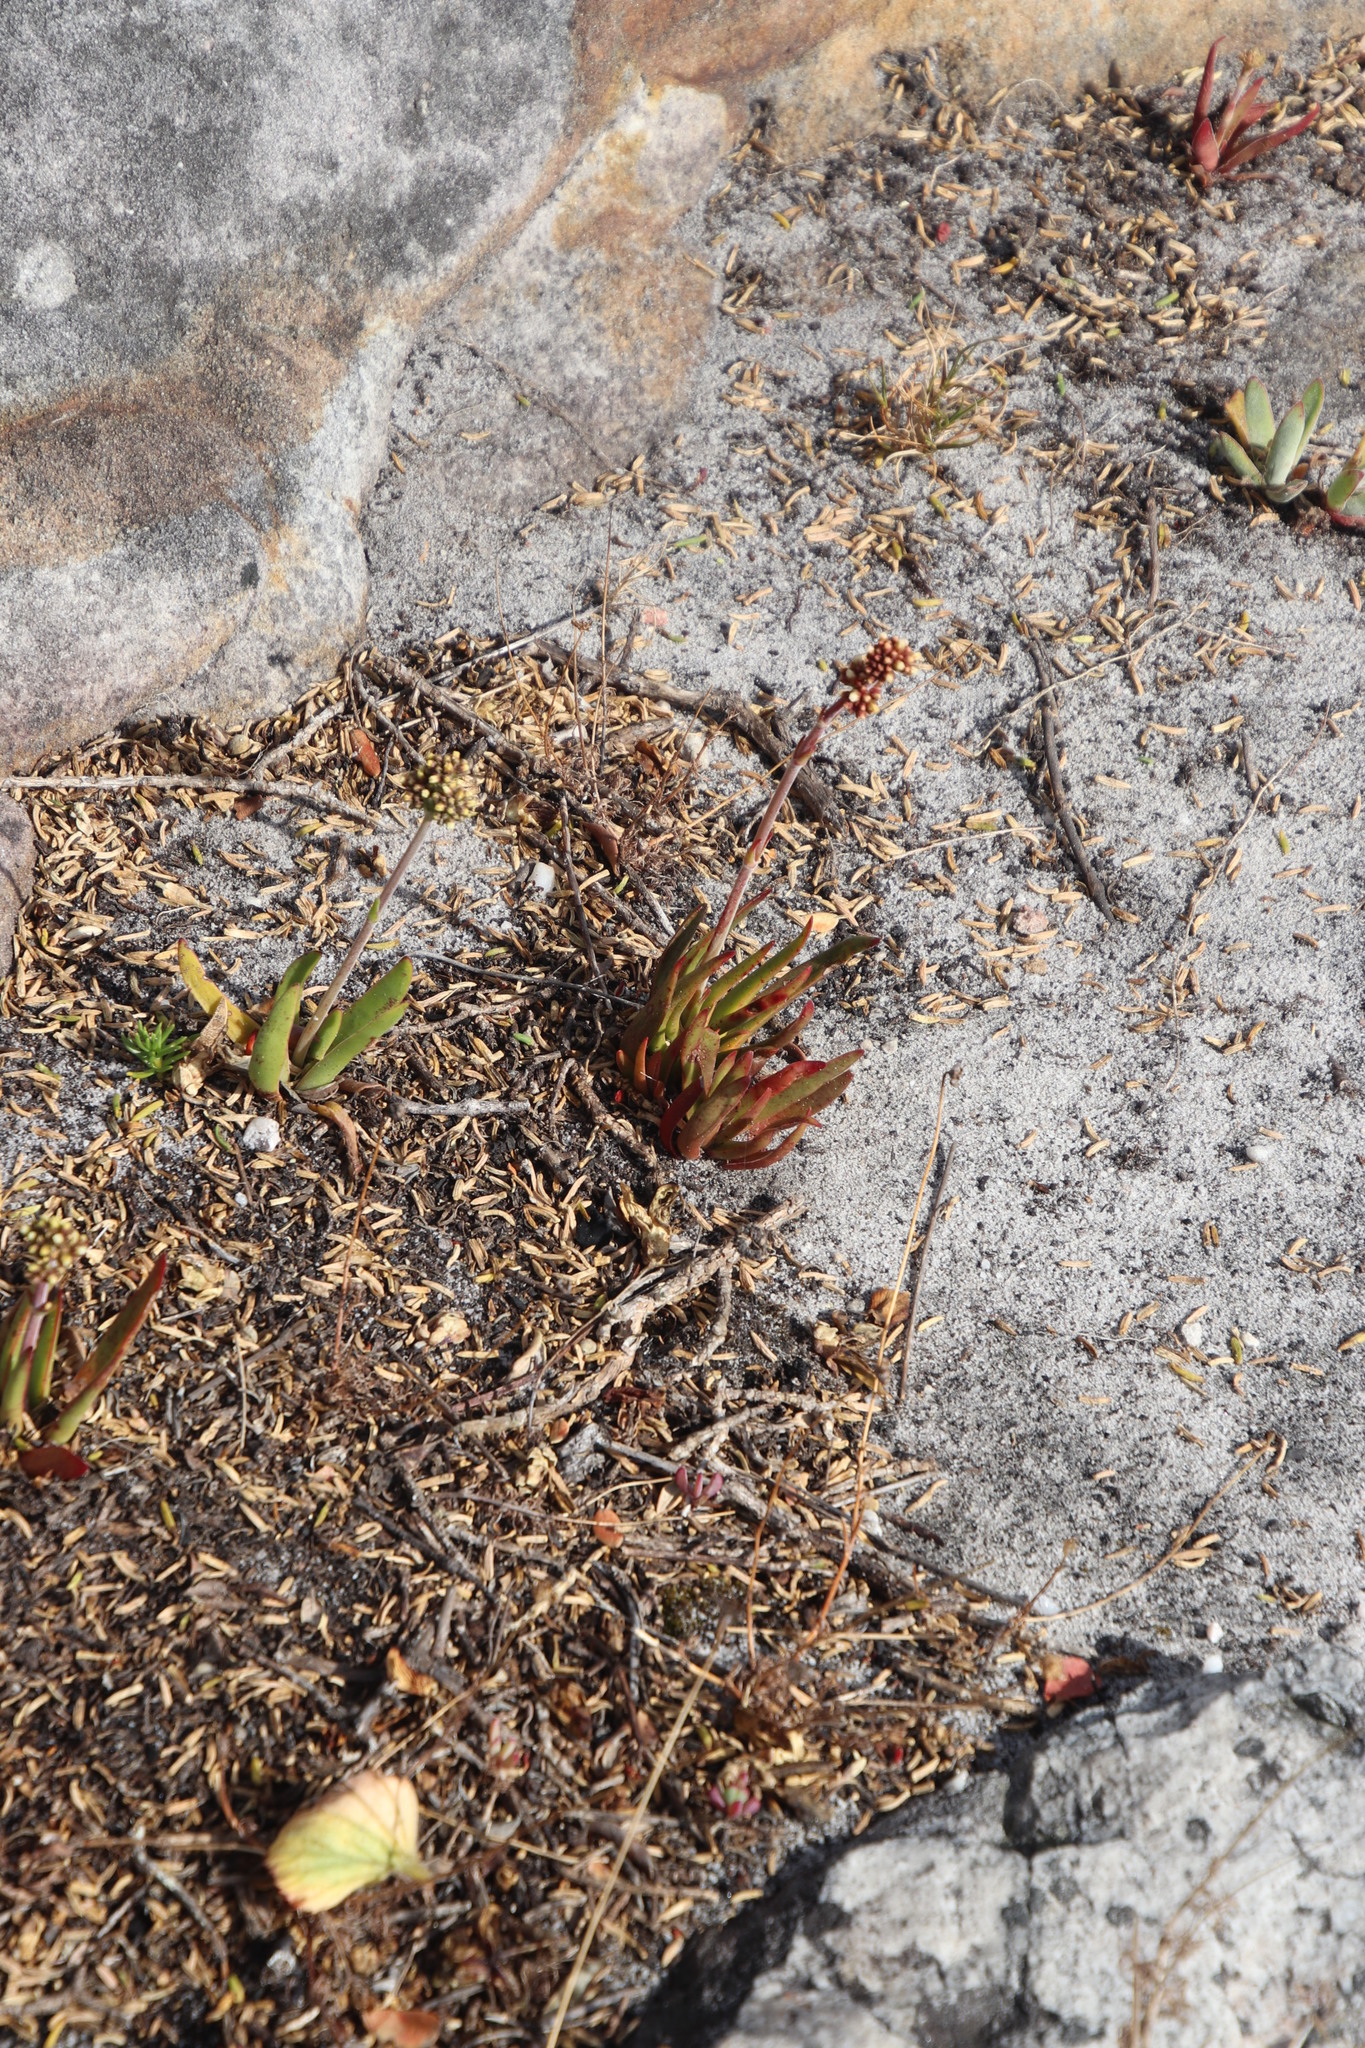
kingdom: Plantae
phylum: Tracheophyta
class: Magnoliopsida
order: Saxifragales
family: Crassulaceae
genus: Crassula
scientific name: Crassula nudicaulis
